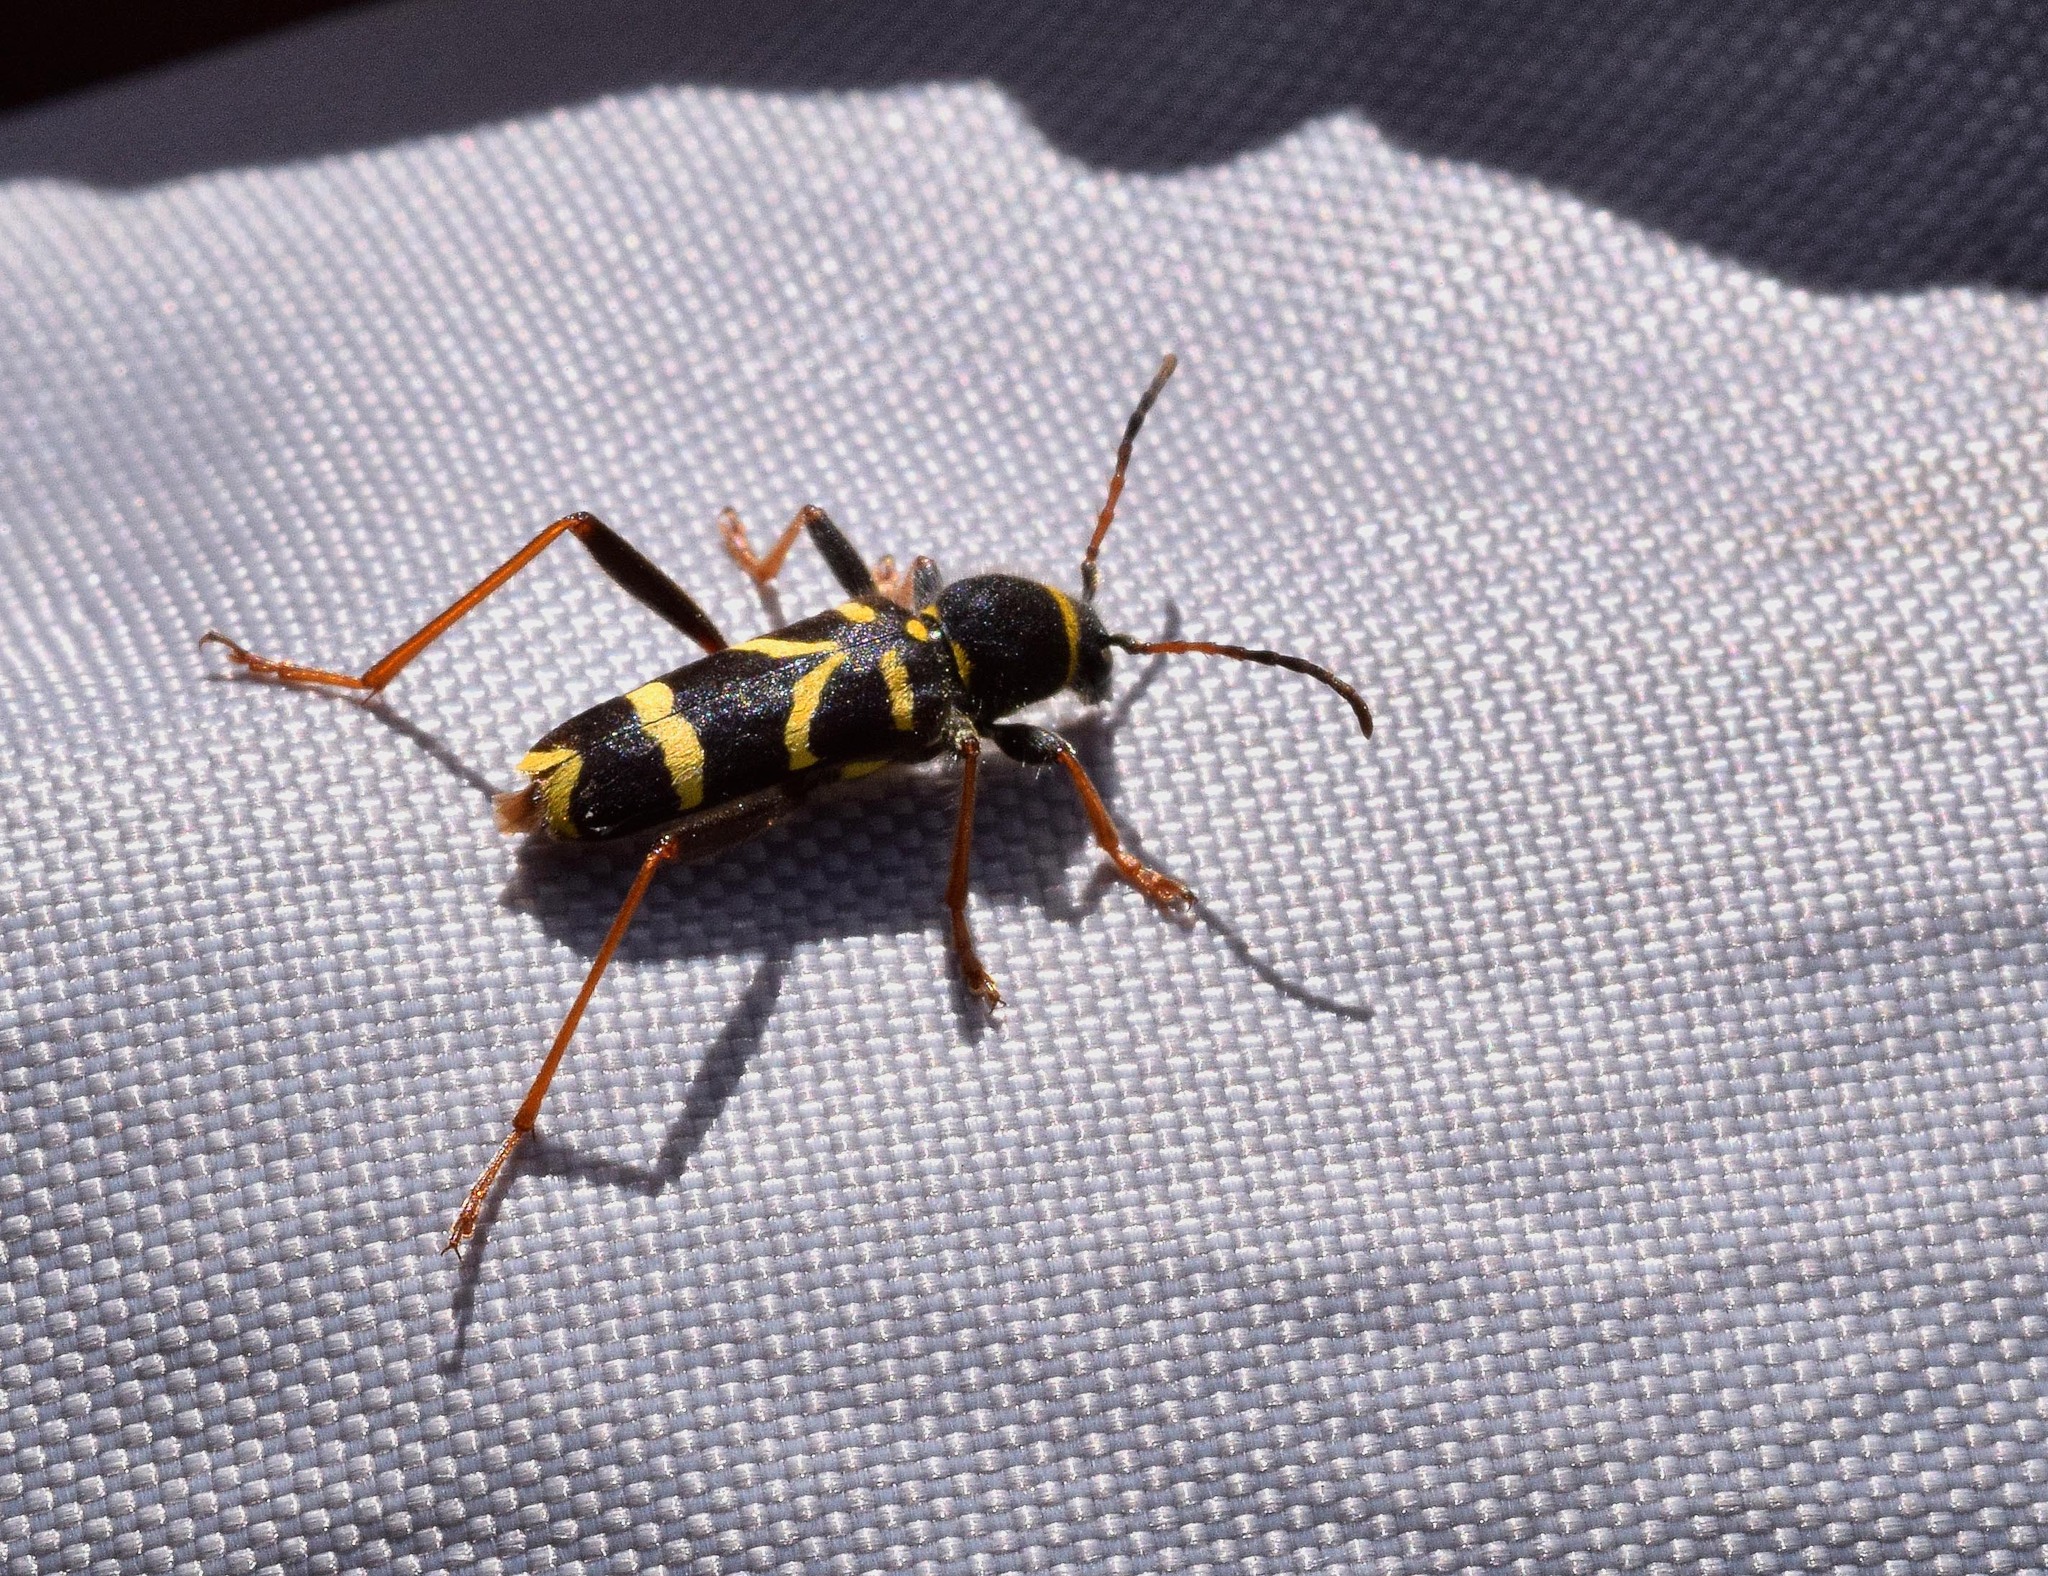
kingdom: Animalia
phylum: Arthropoda
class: Insecta
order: Coleoptera
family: Cerambycidae
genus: Clytus
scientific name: Clytus arietis
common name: Wasp beetle
